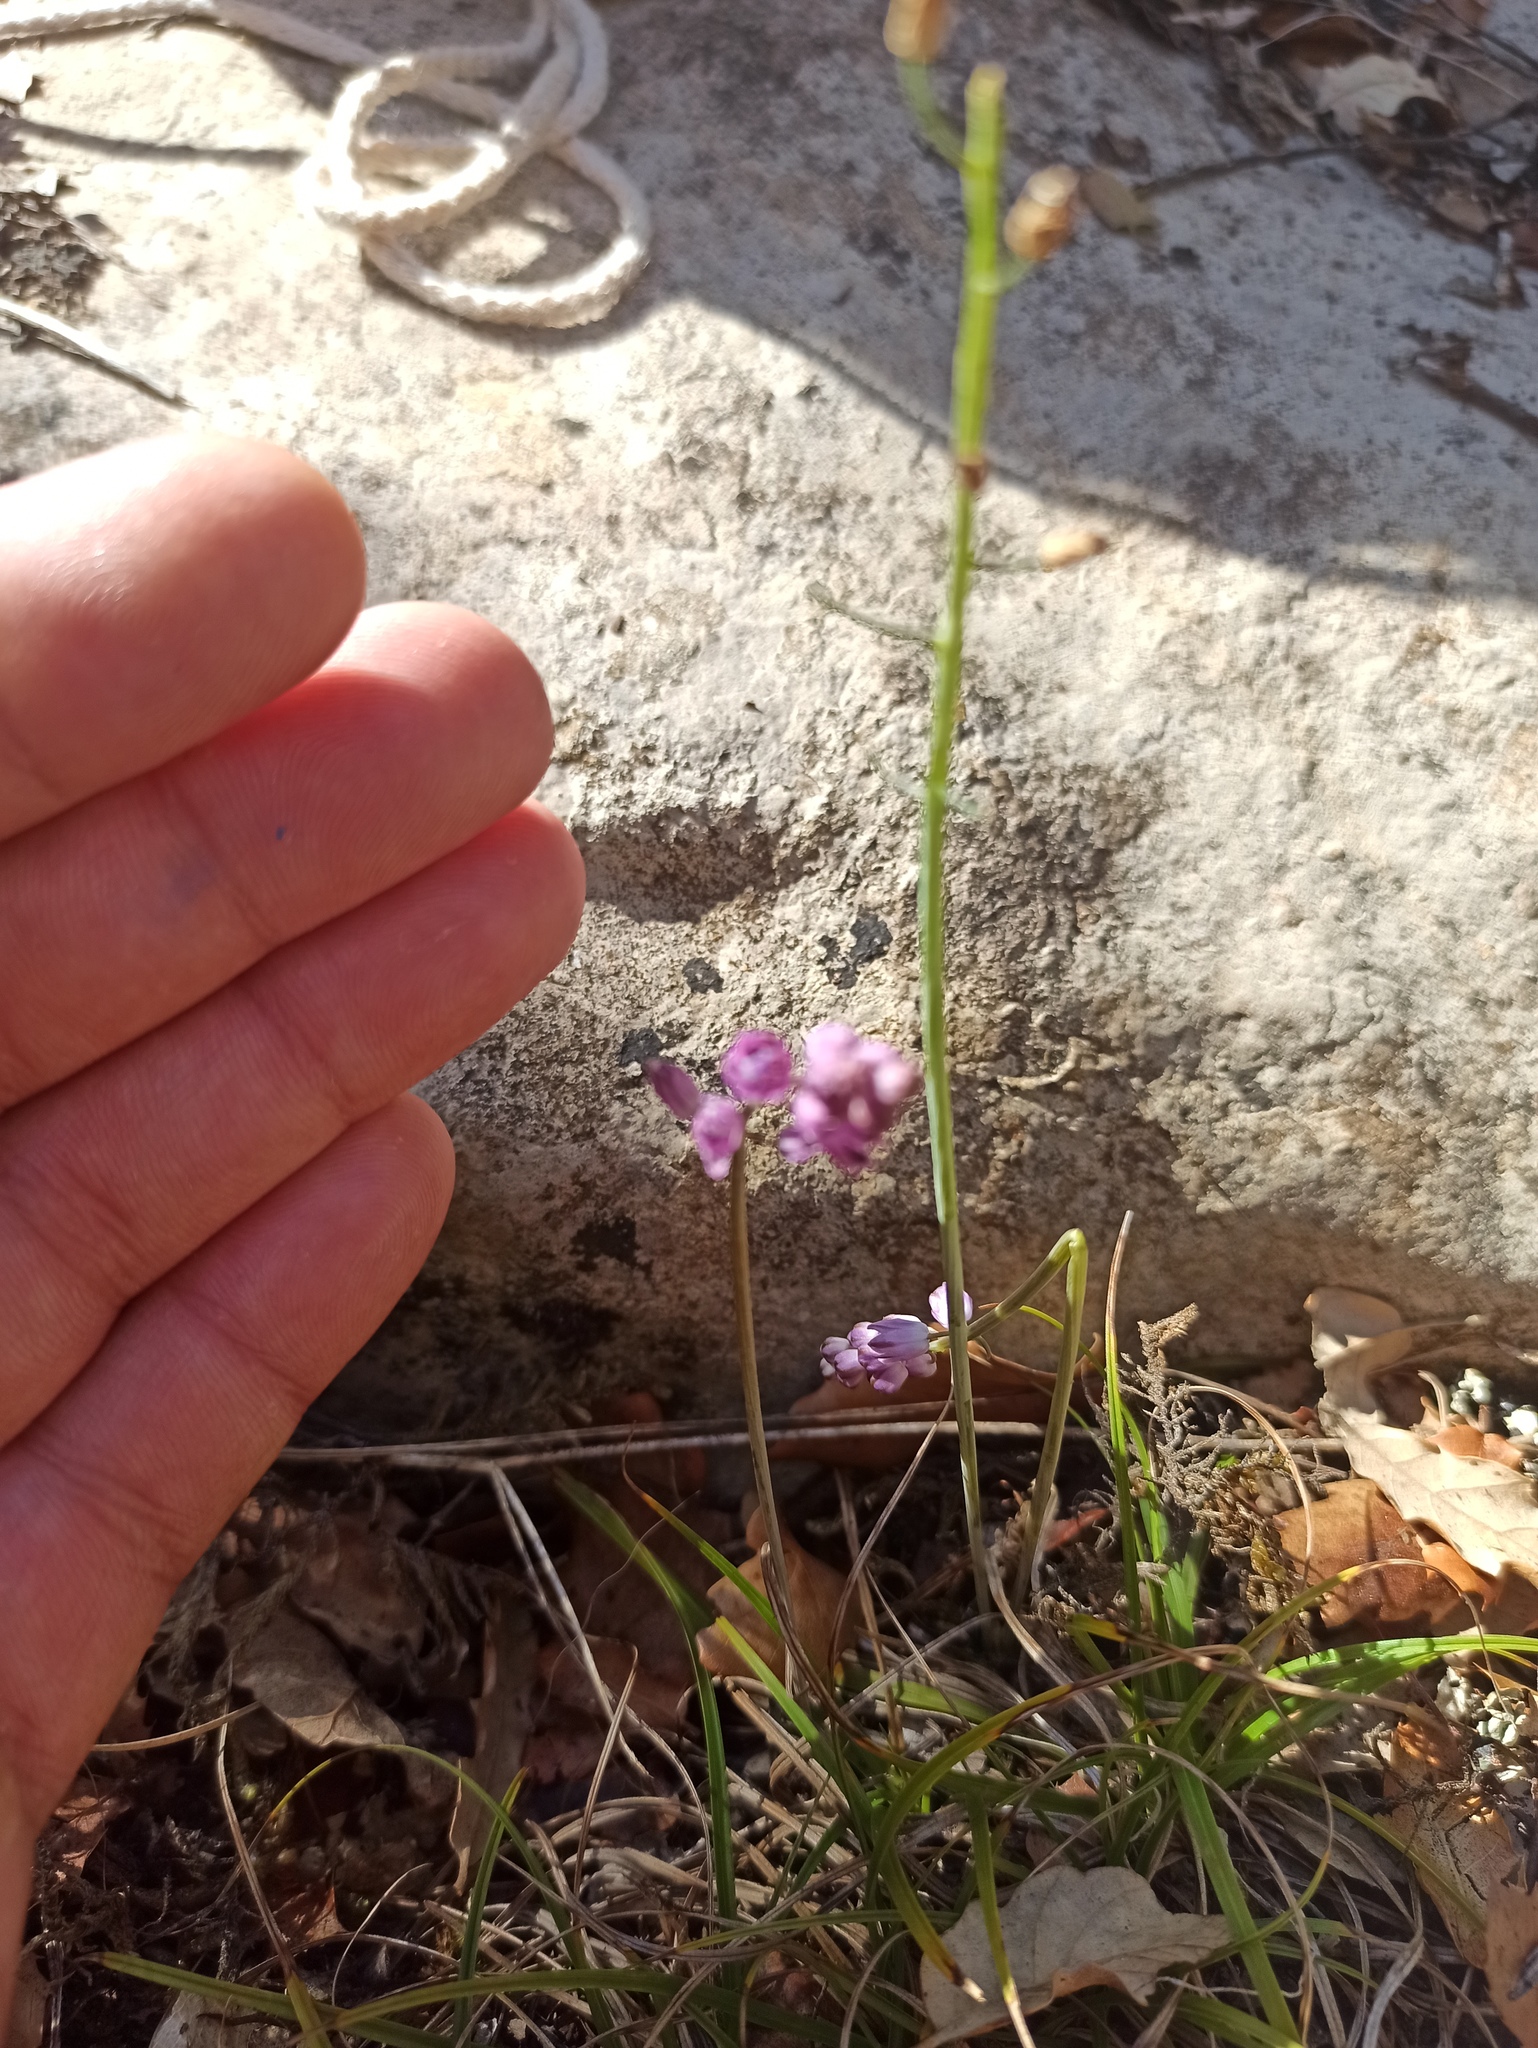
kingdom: Plantae
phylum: Tracheophyta
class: Liliopsida
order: Asparagales
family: Asparagaceae
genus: Prospero
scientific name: Prospero autumnale
